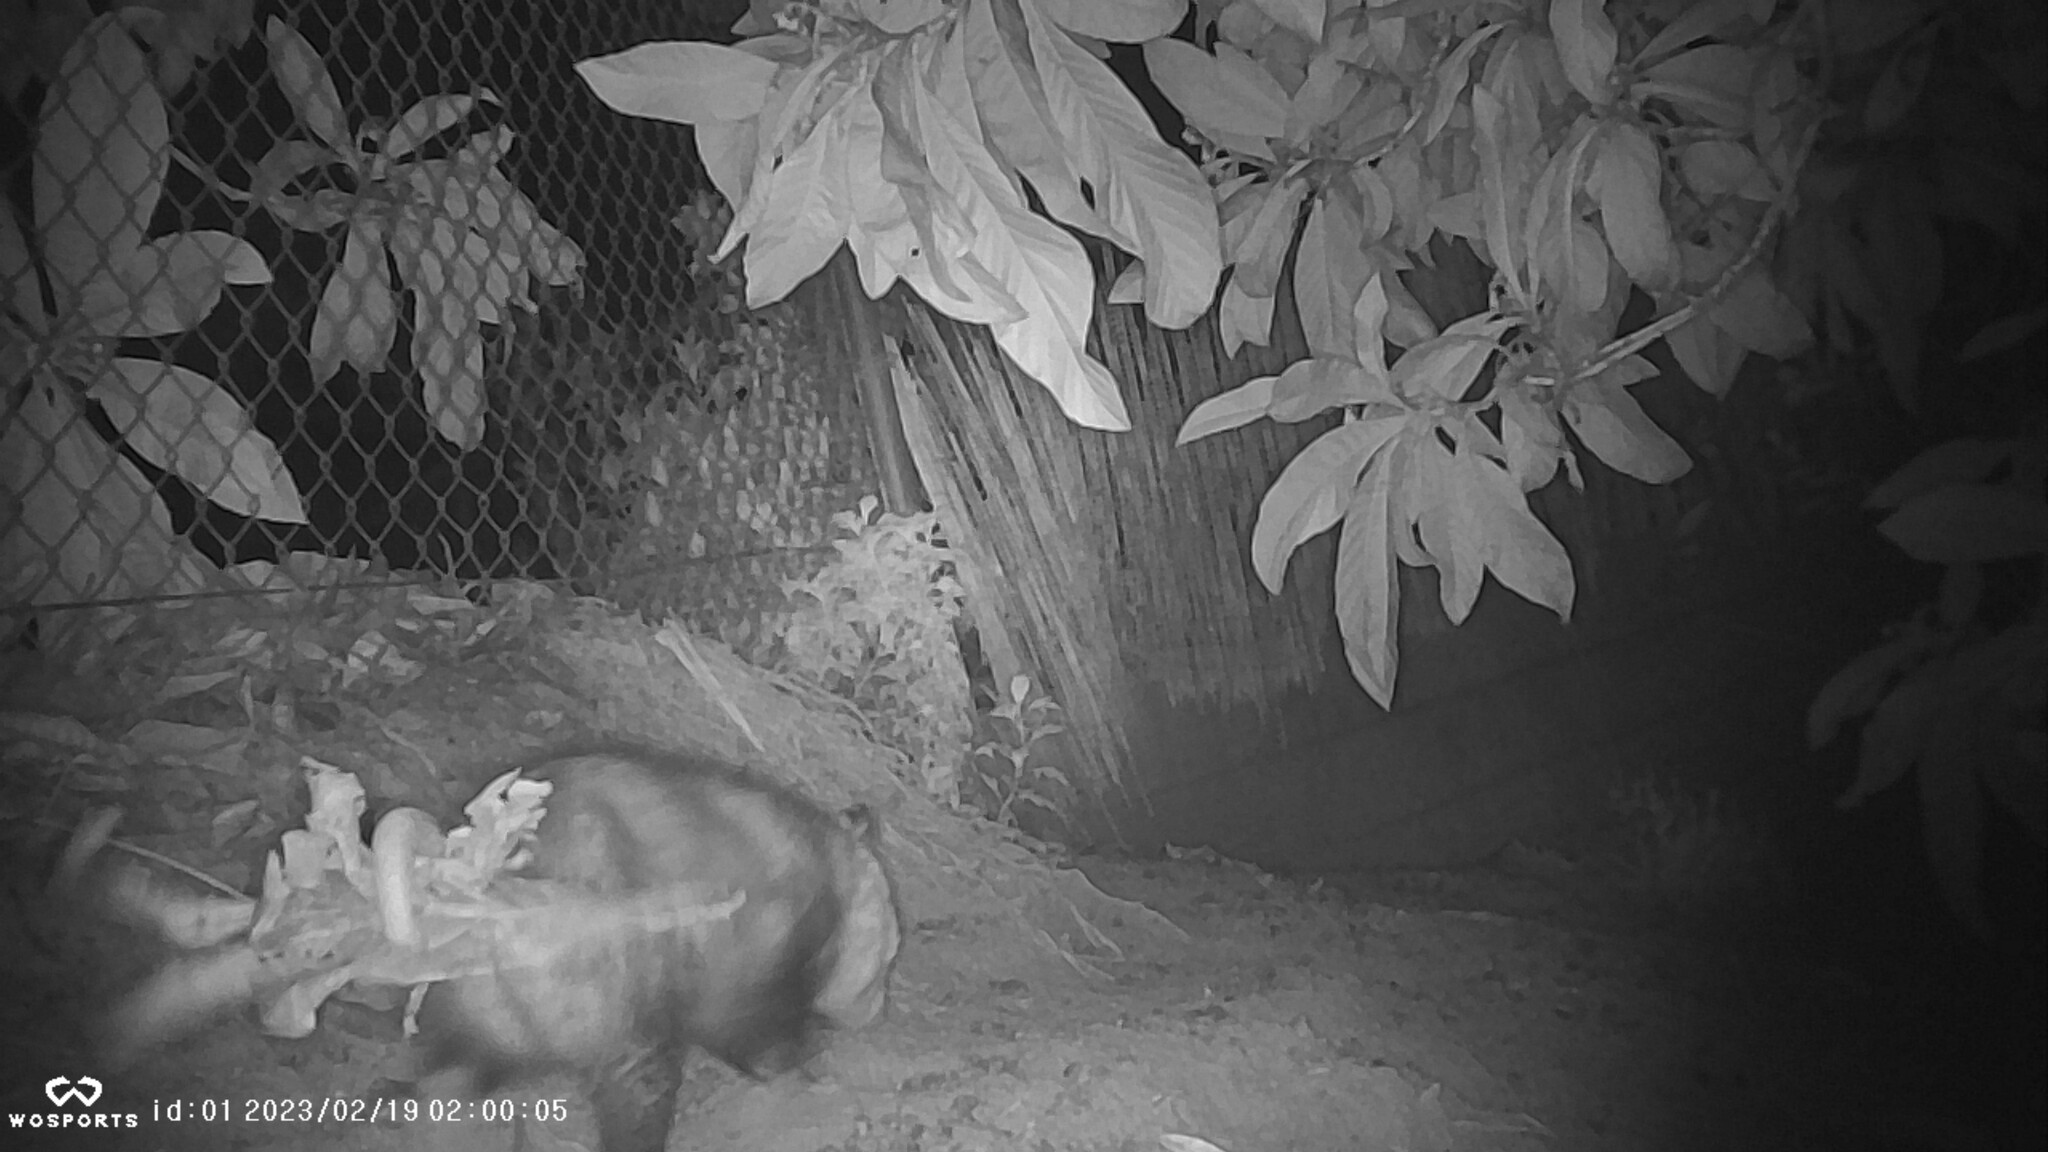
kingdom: Animalia
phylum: Chordata
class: Mammalia
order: Didelphimorphia
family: Didelphidae
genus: Didelphis
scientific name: Didelphis virginiana
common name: Virginia opossum
